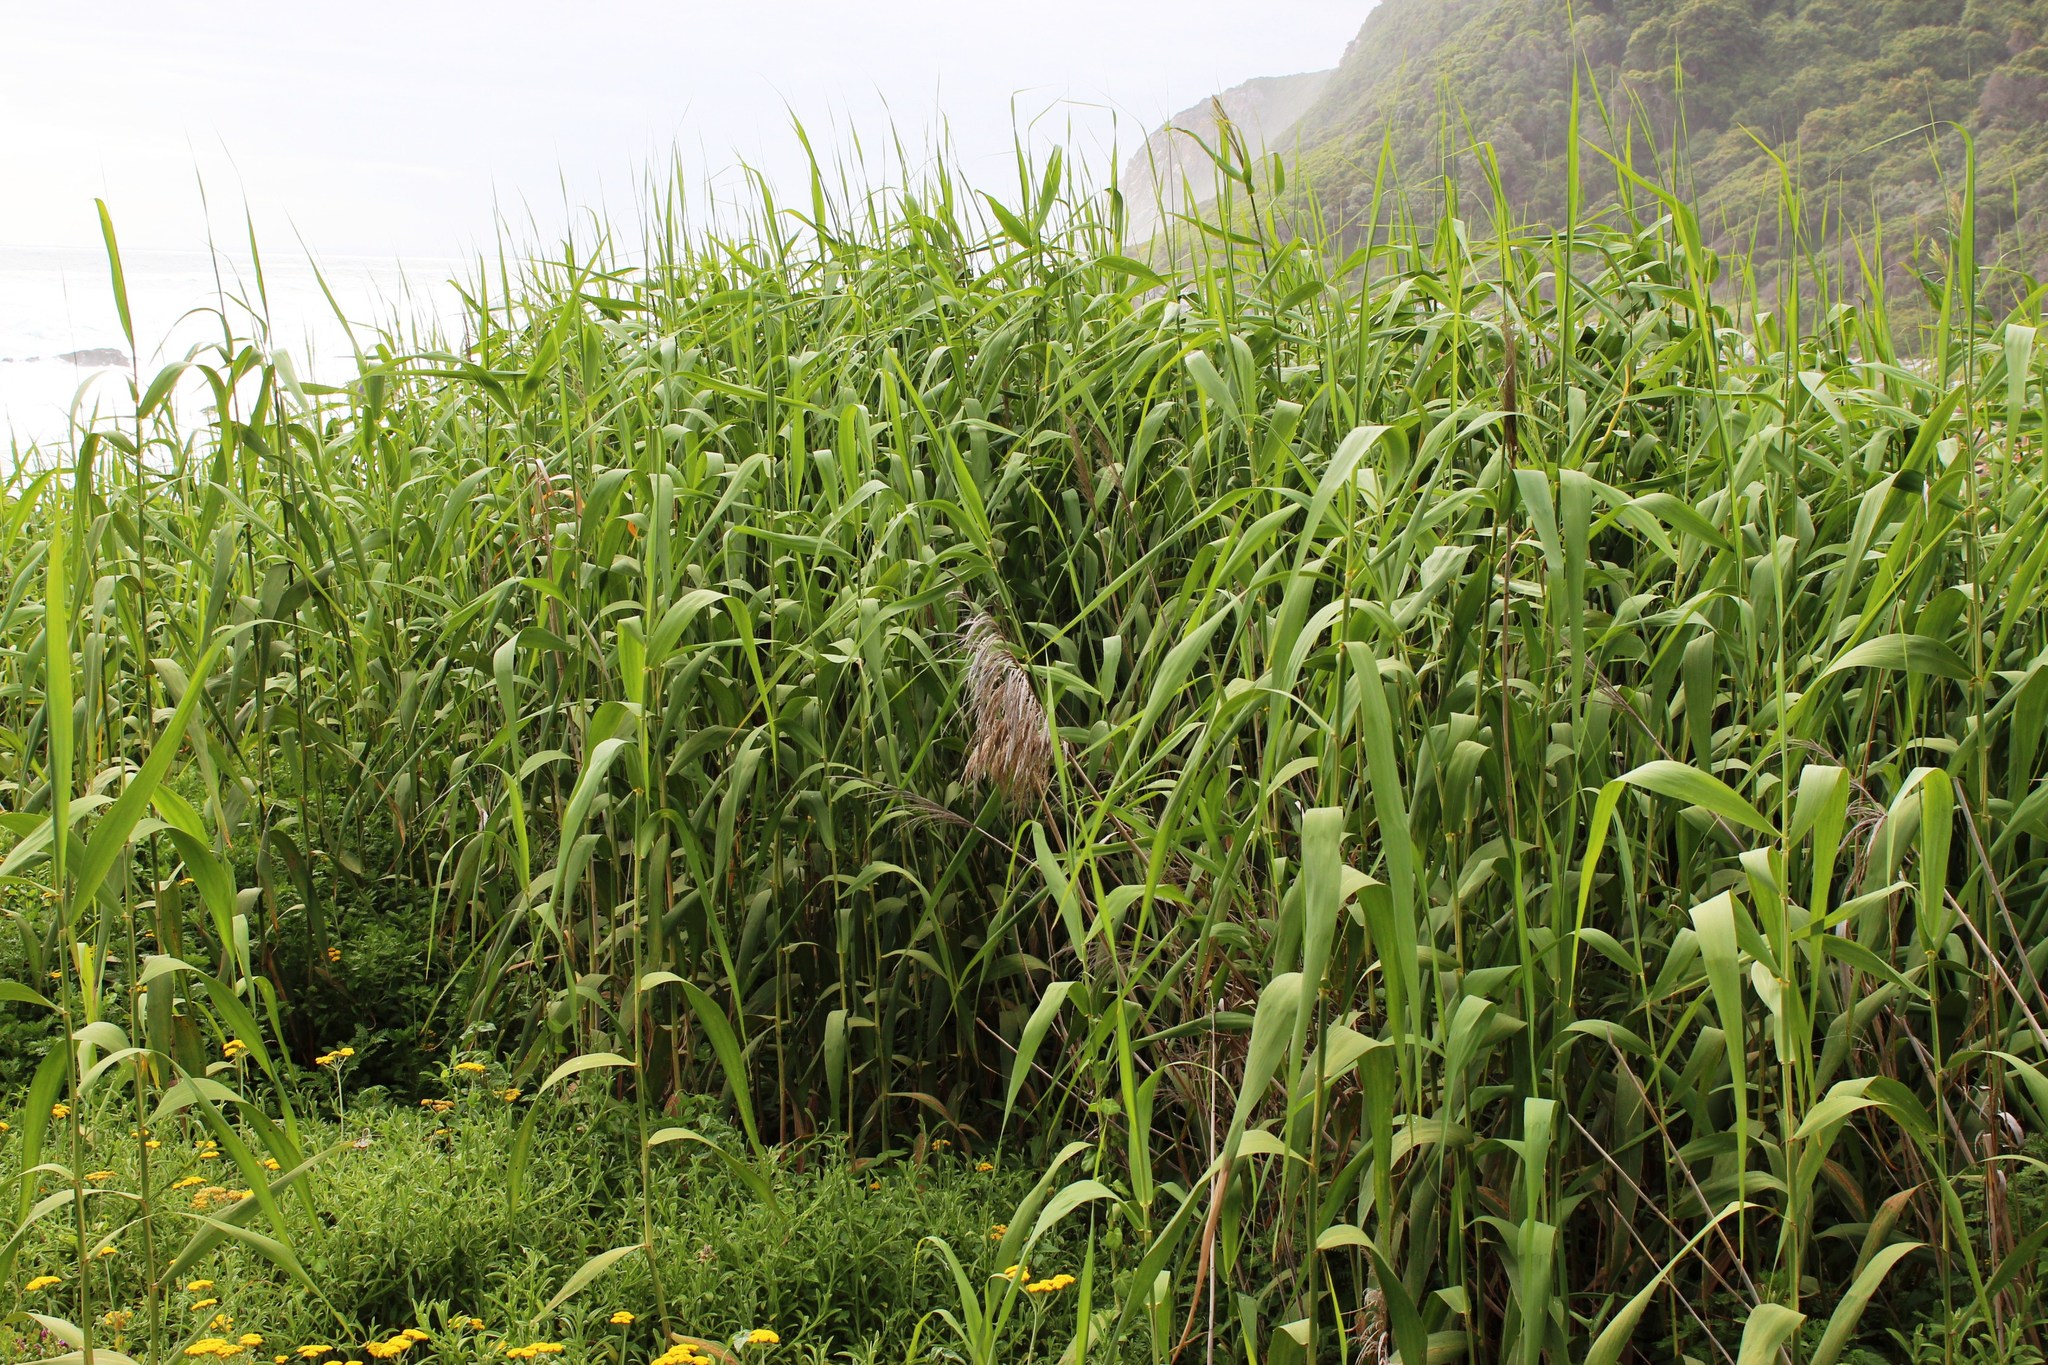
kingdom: Plantae
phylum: Tracheophyta
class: Liliopsida
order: Poales
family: Poaceae
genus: Phragmites
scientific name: Phragmites australis
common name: Common reed
